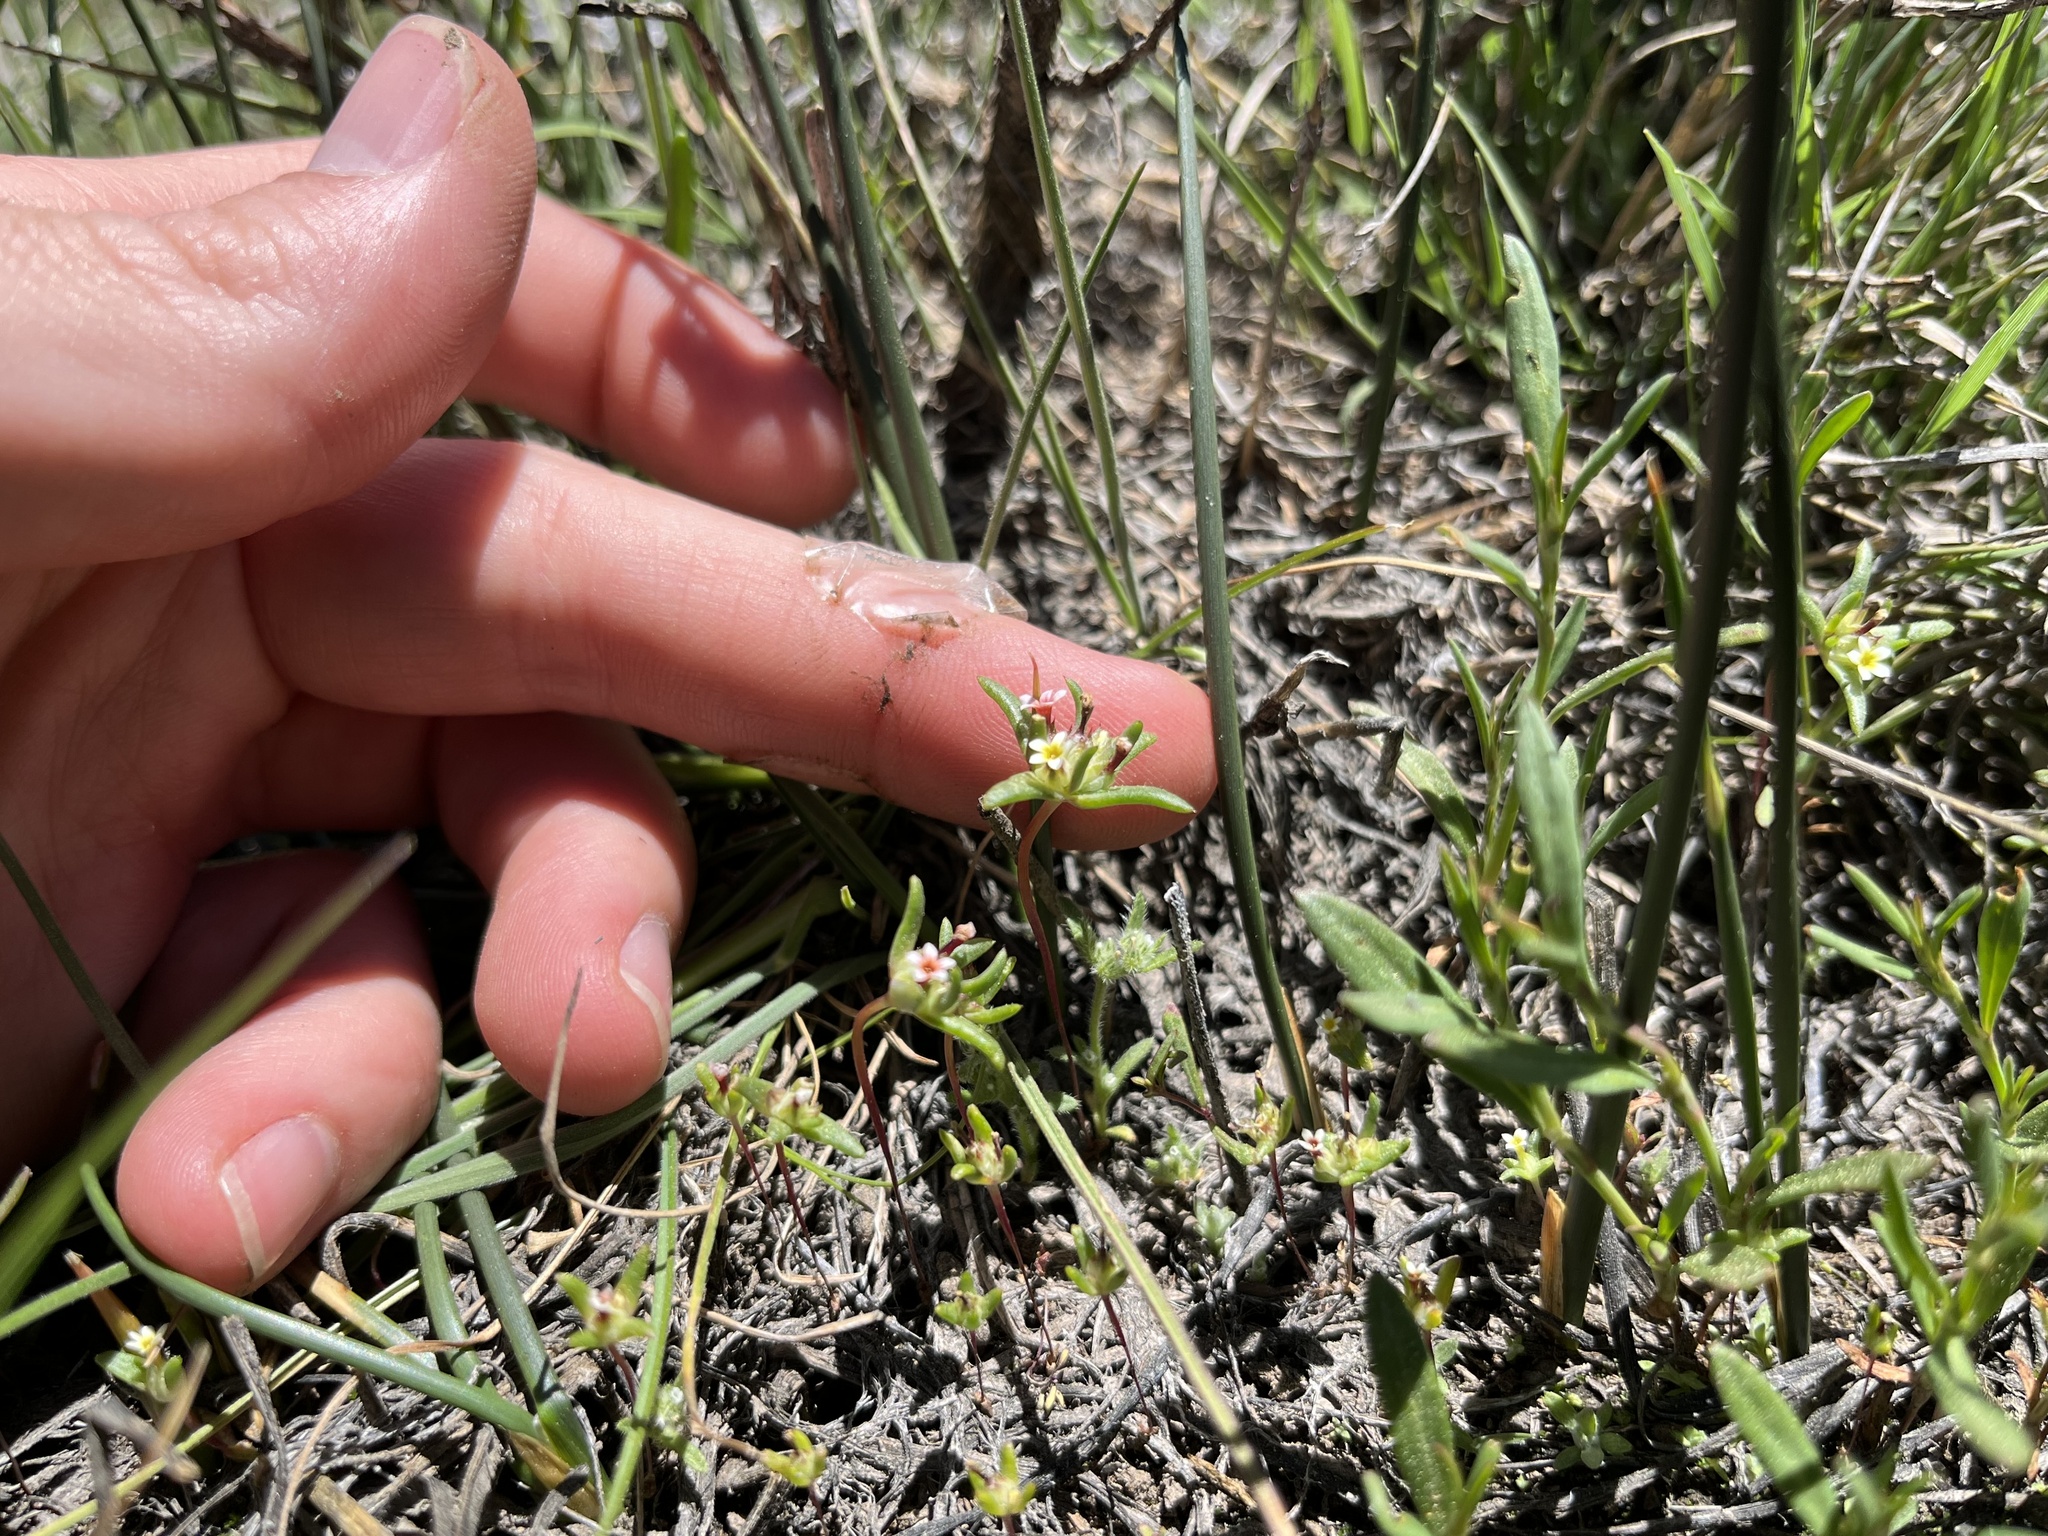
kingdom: Plantae
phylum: Tracheophyta
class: Magnoliopsida
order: Ericales
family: Polemoniaceae
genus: Gymnosteris
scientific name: Gymnosteris parvula
